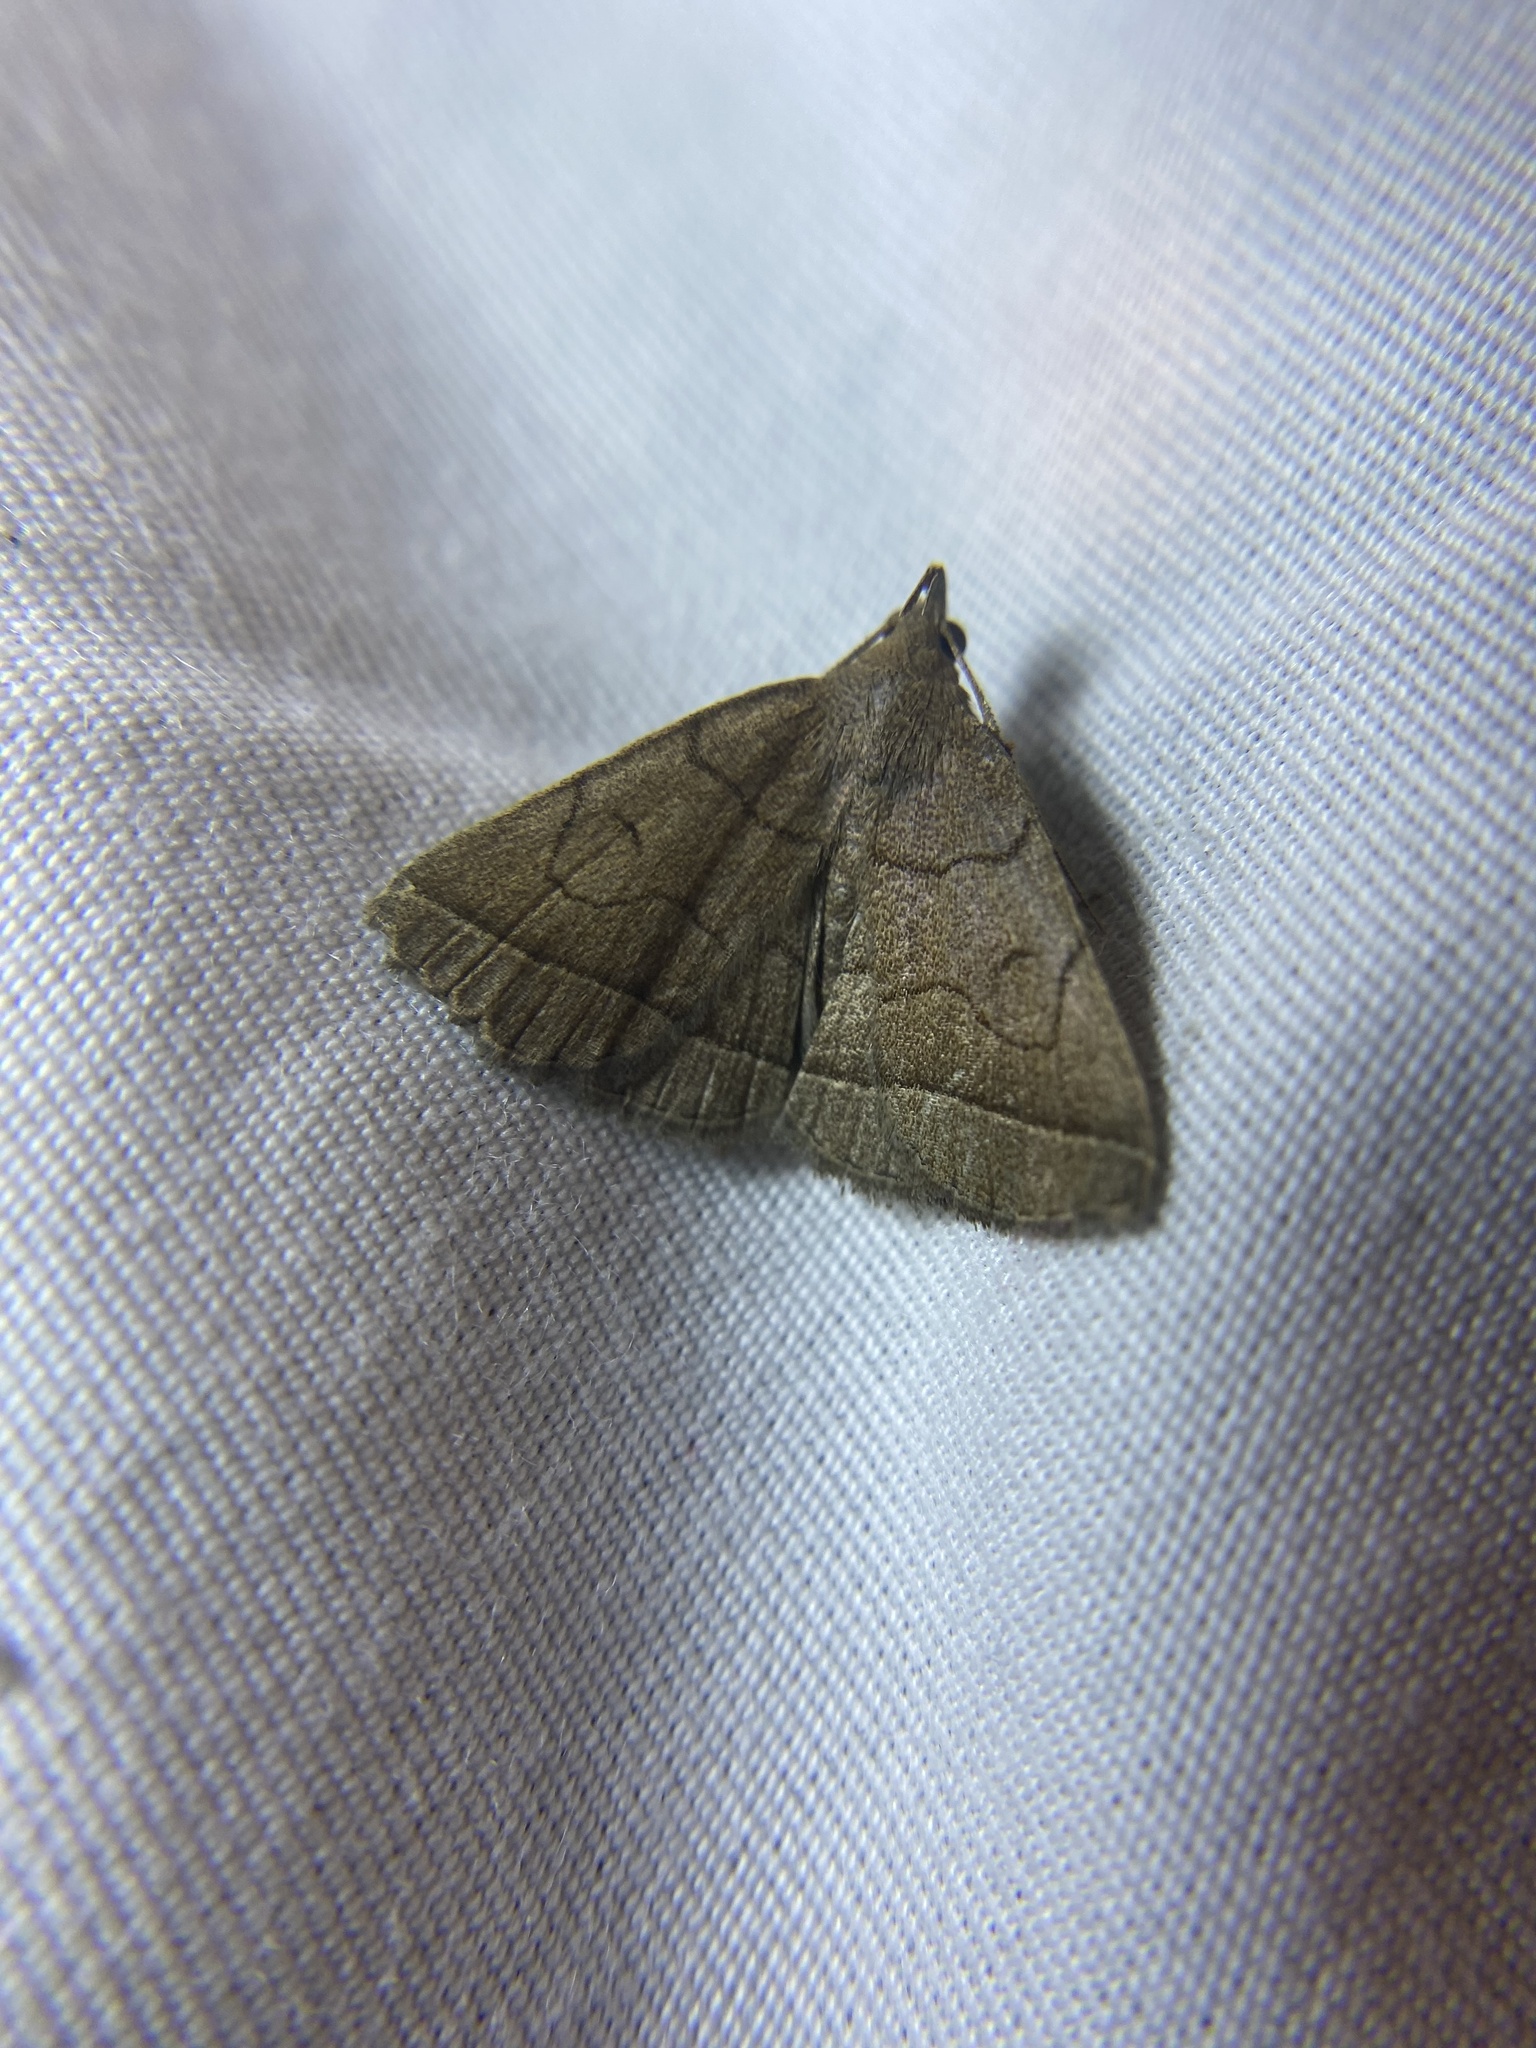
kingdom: Animalia
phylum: Arthropoda
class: Insecta
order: Lepidoptera
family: Erebidae
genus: Zanclognatha
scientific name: Zanclognatha cruralis
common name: Early fan-foot
